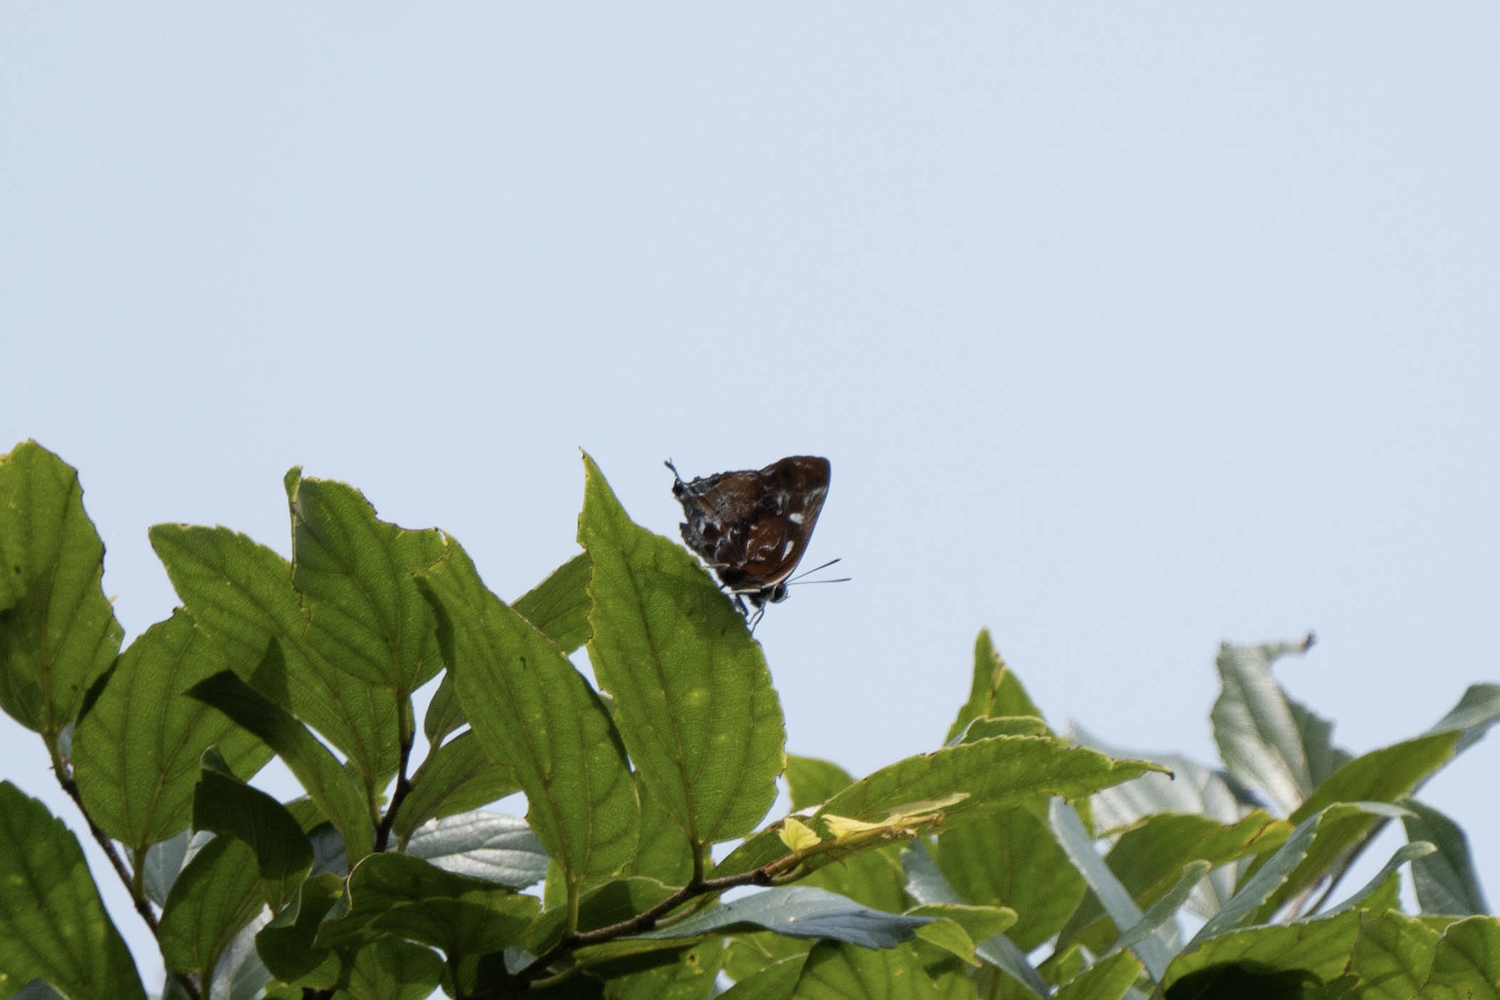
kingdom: Animalia
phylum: Arthropoda
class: Insecta
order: Lepidoptera
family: Lycaenidae
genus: Iraota
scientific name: Iraota timoleon
